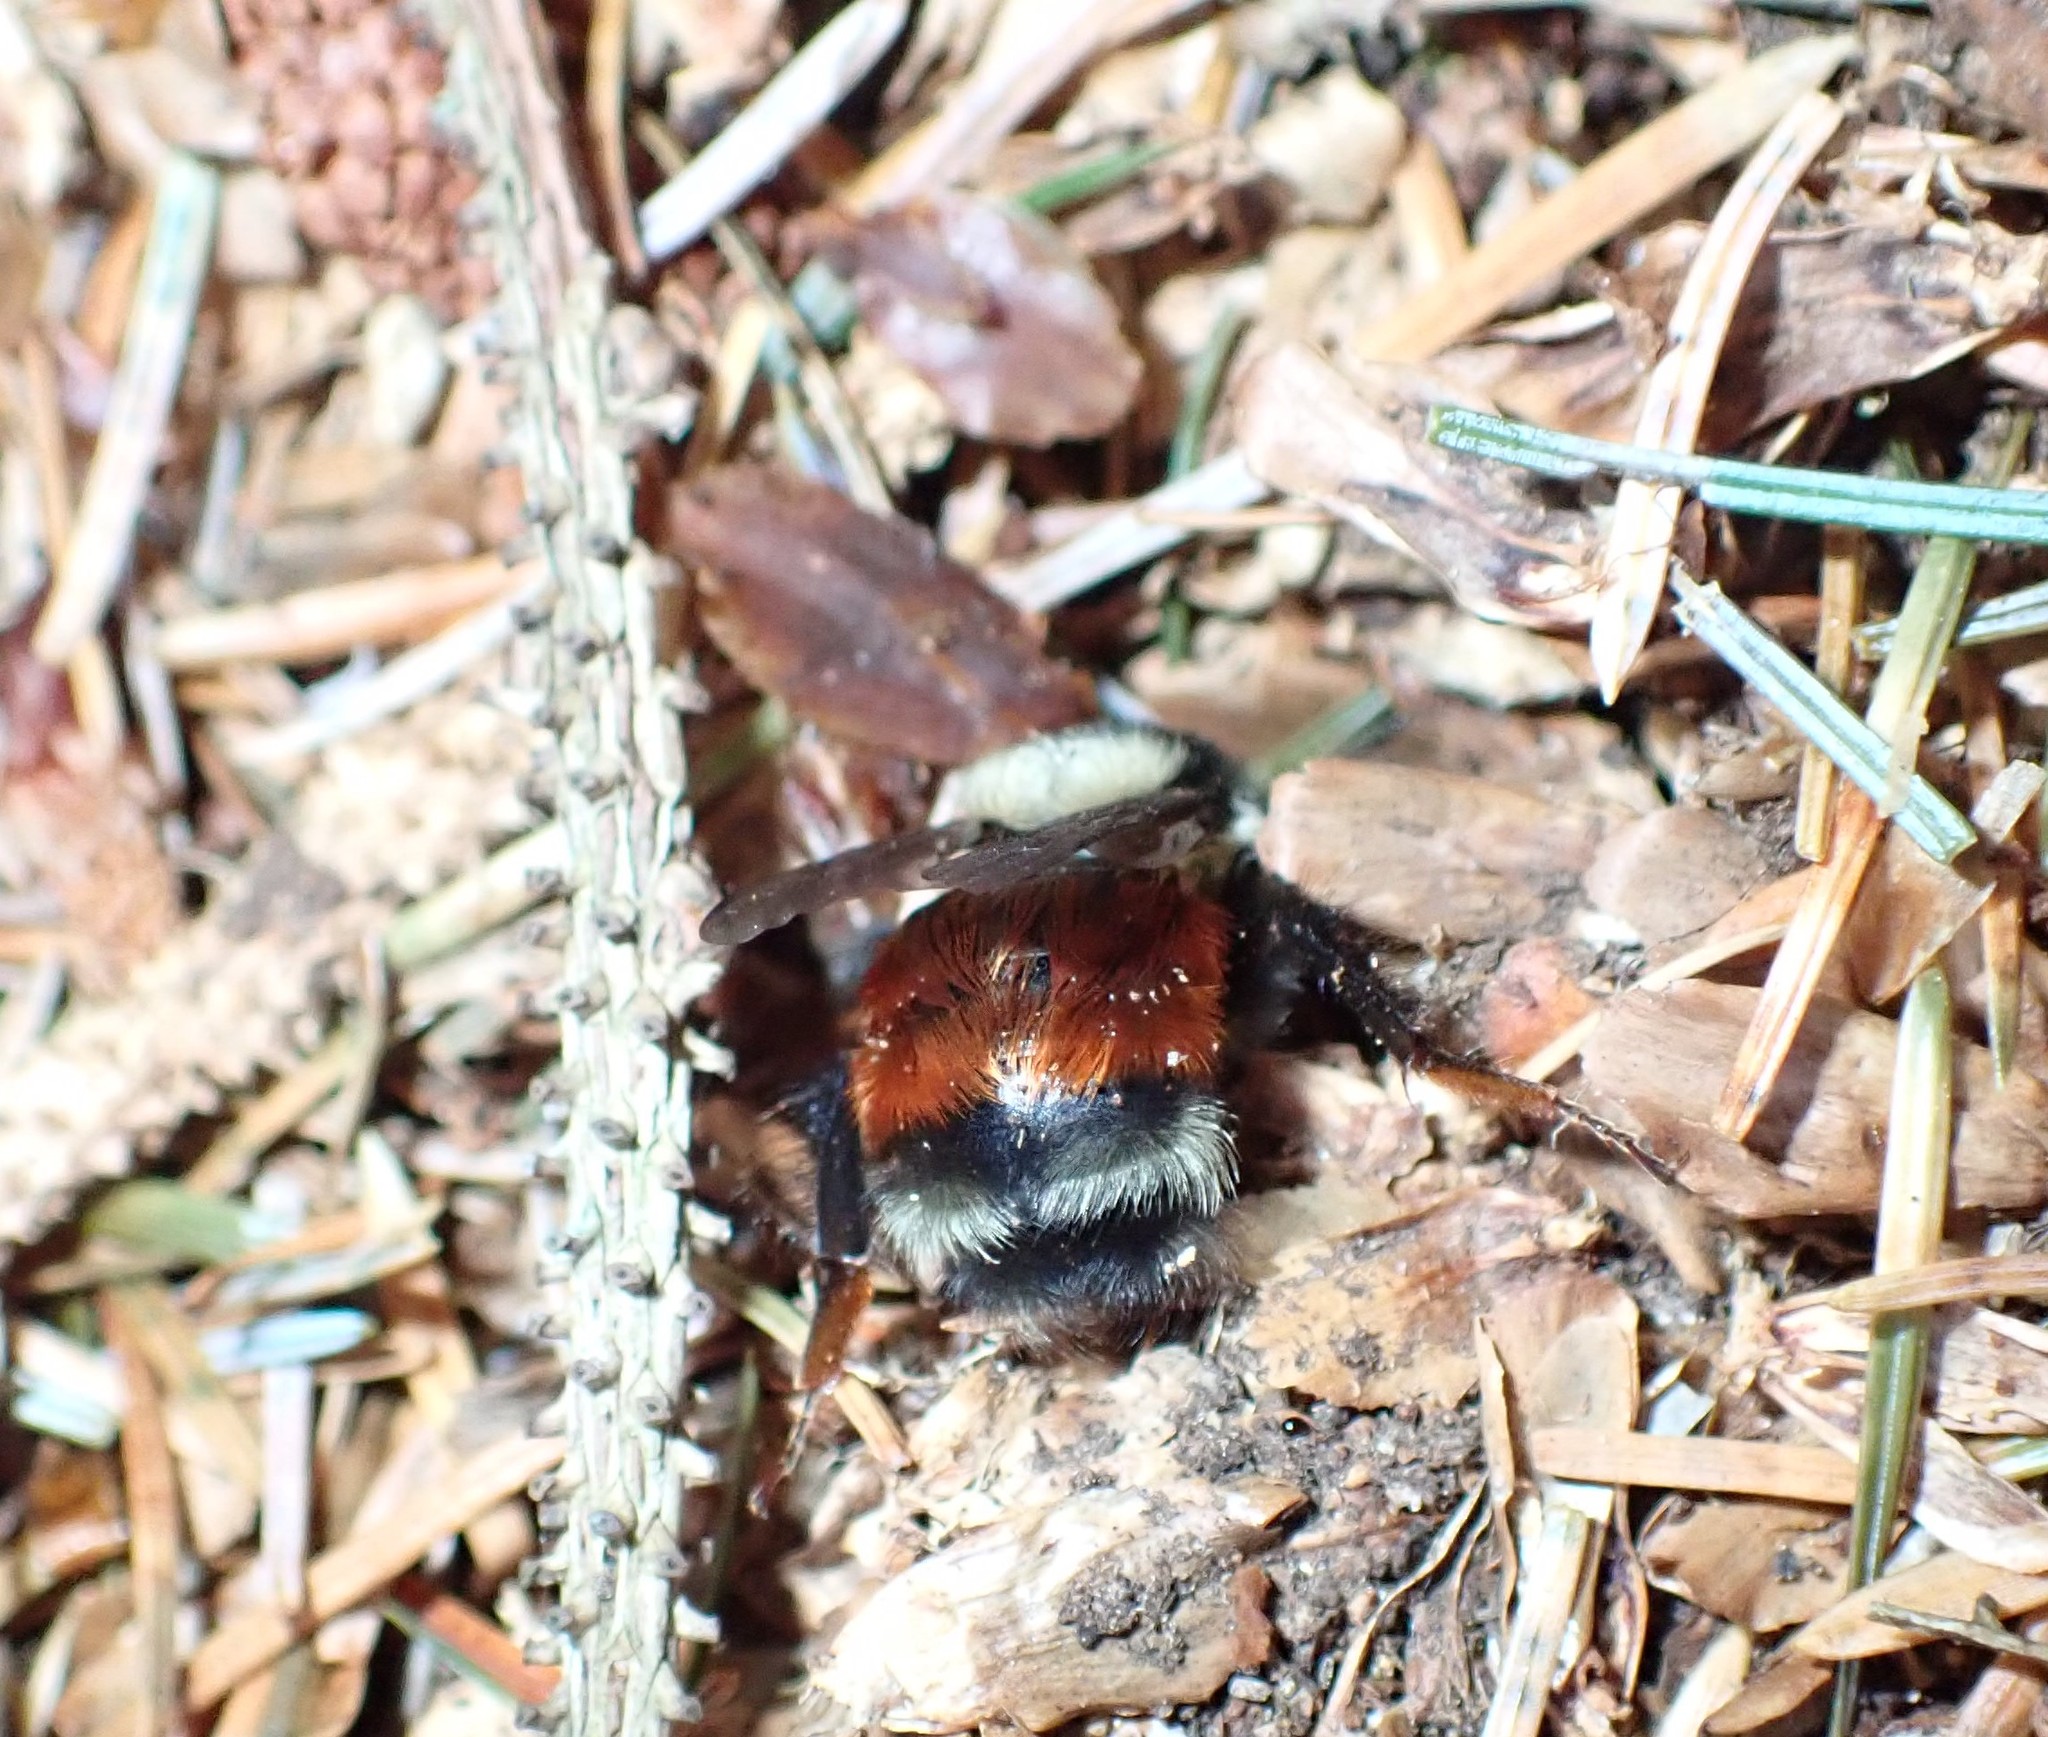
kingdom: Animalia
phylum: Arthropoda
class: Insecta
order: Hymenoptera
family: Apidae
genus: Bombus
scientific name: Bombus melanopygus
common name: Black tail bumble bee
